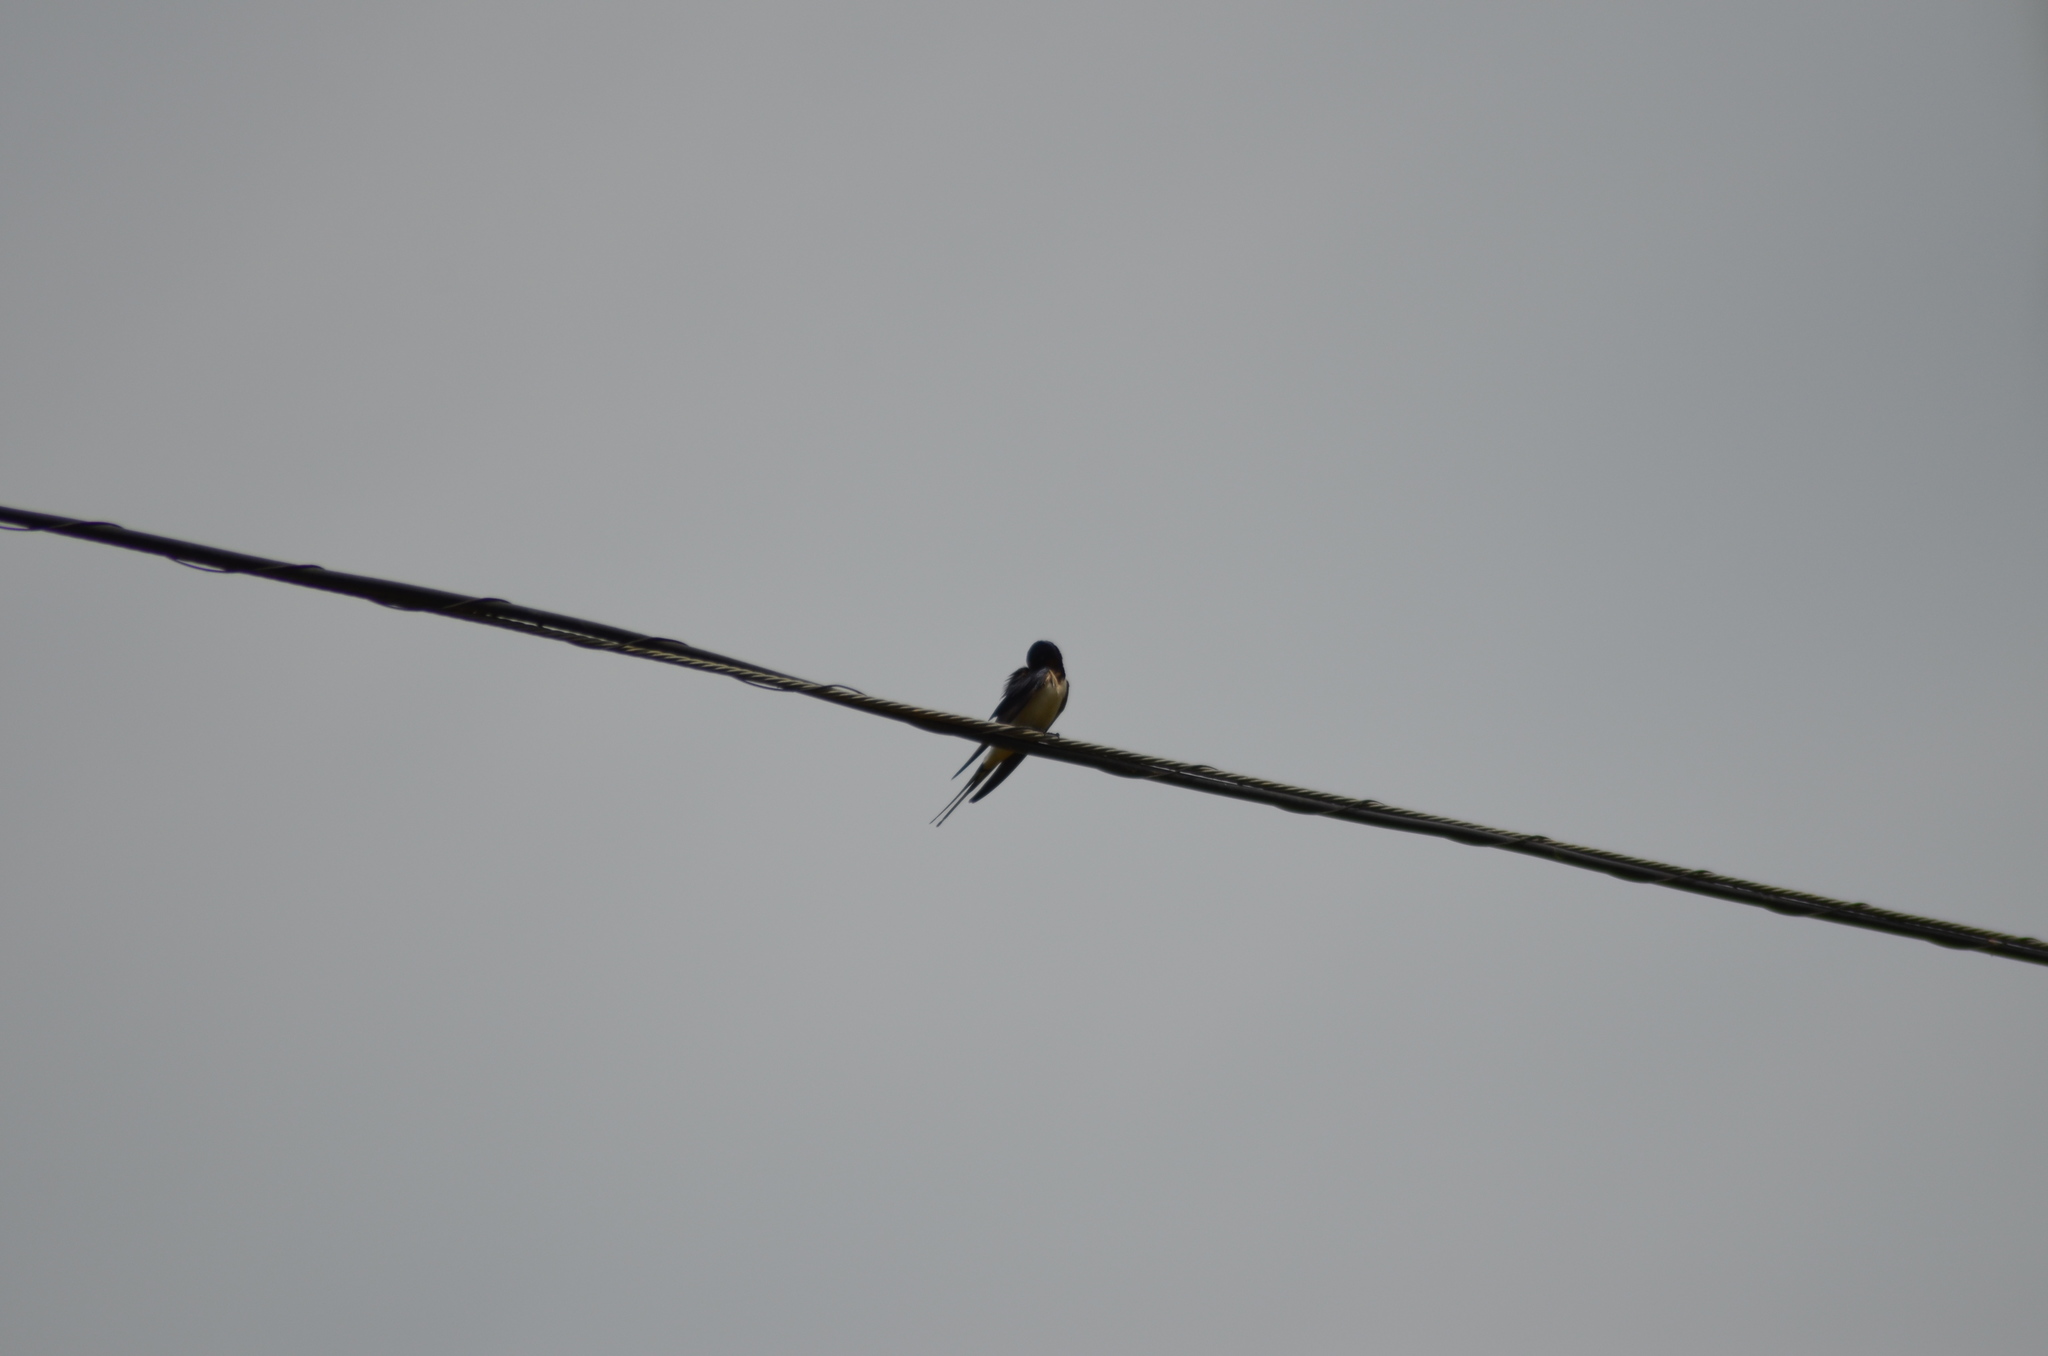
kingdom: Animalia
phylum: Chordata
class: Aves
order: Passeriformes
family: Hirundinidae
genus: Hirundo
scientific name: Hirundo rustica
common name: Barn swallow
